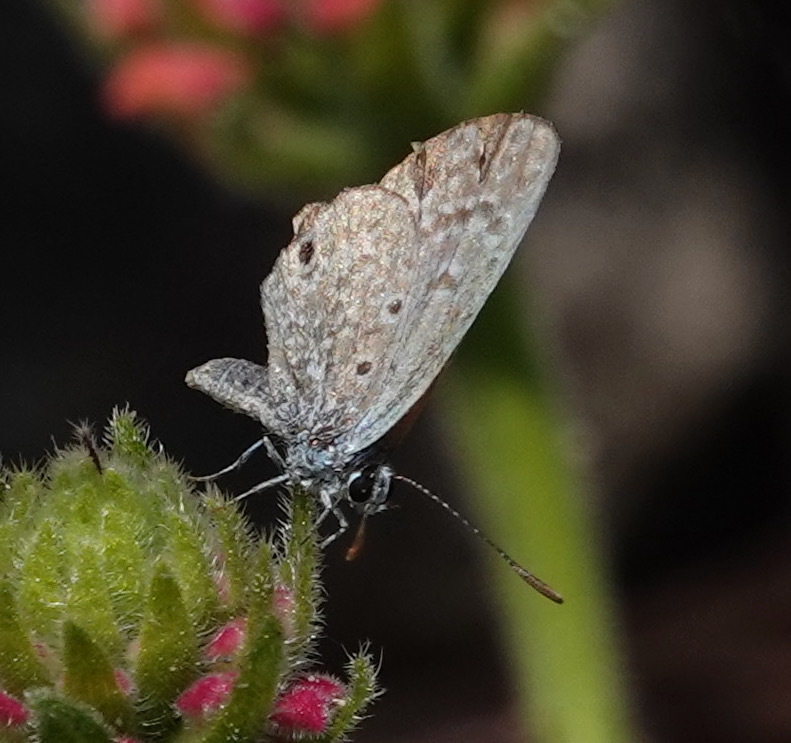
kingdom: Animalia
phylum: Arthropoda
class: Insecta
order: Lepidoptera
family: Lycaenidae
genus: Hemiargus
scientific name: Hemiargus hanno
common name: Common blue
